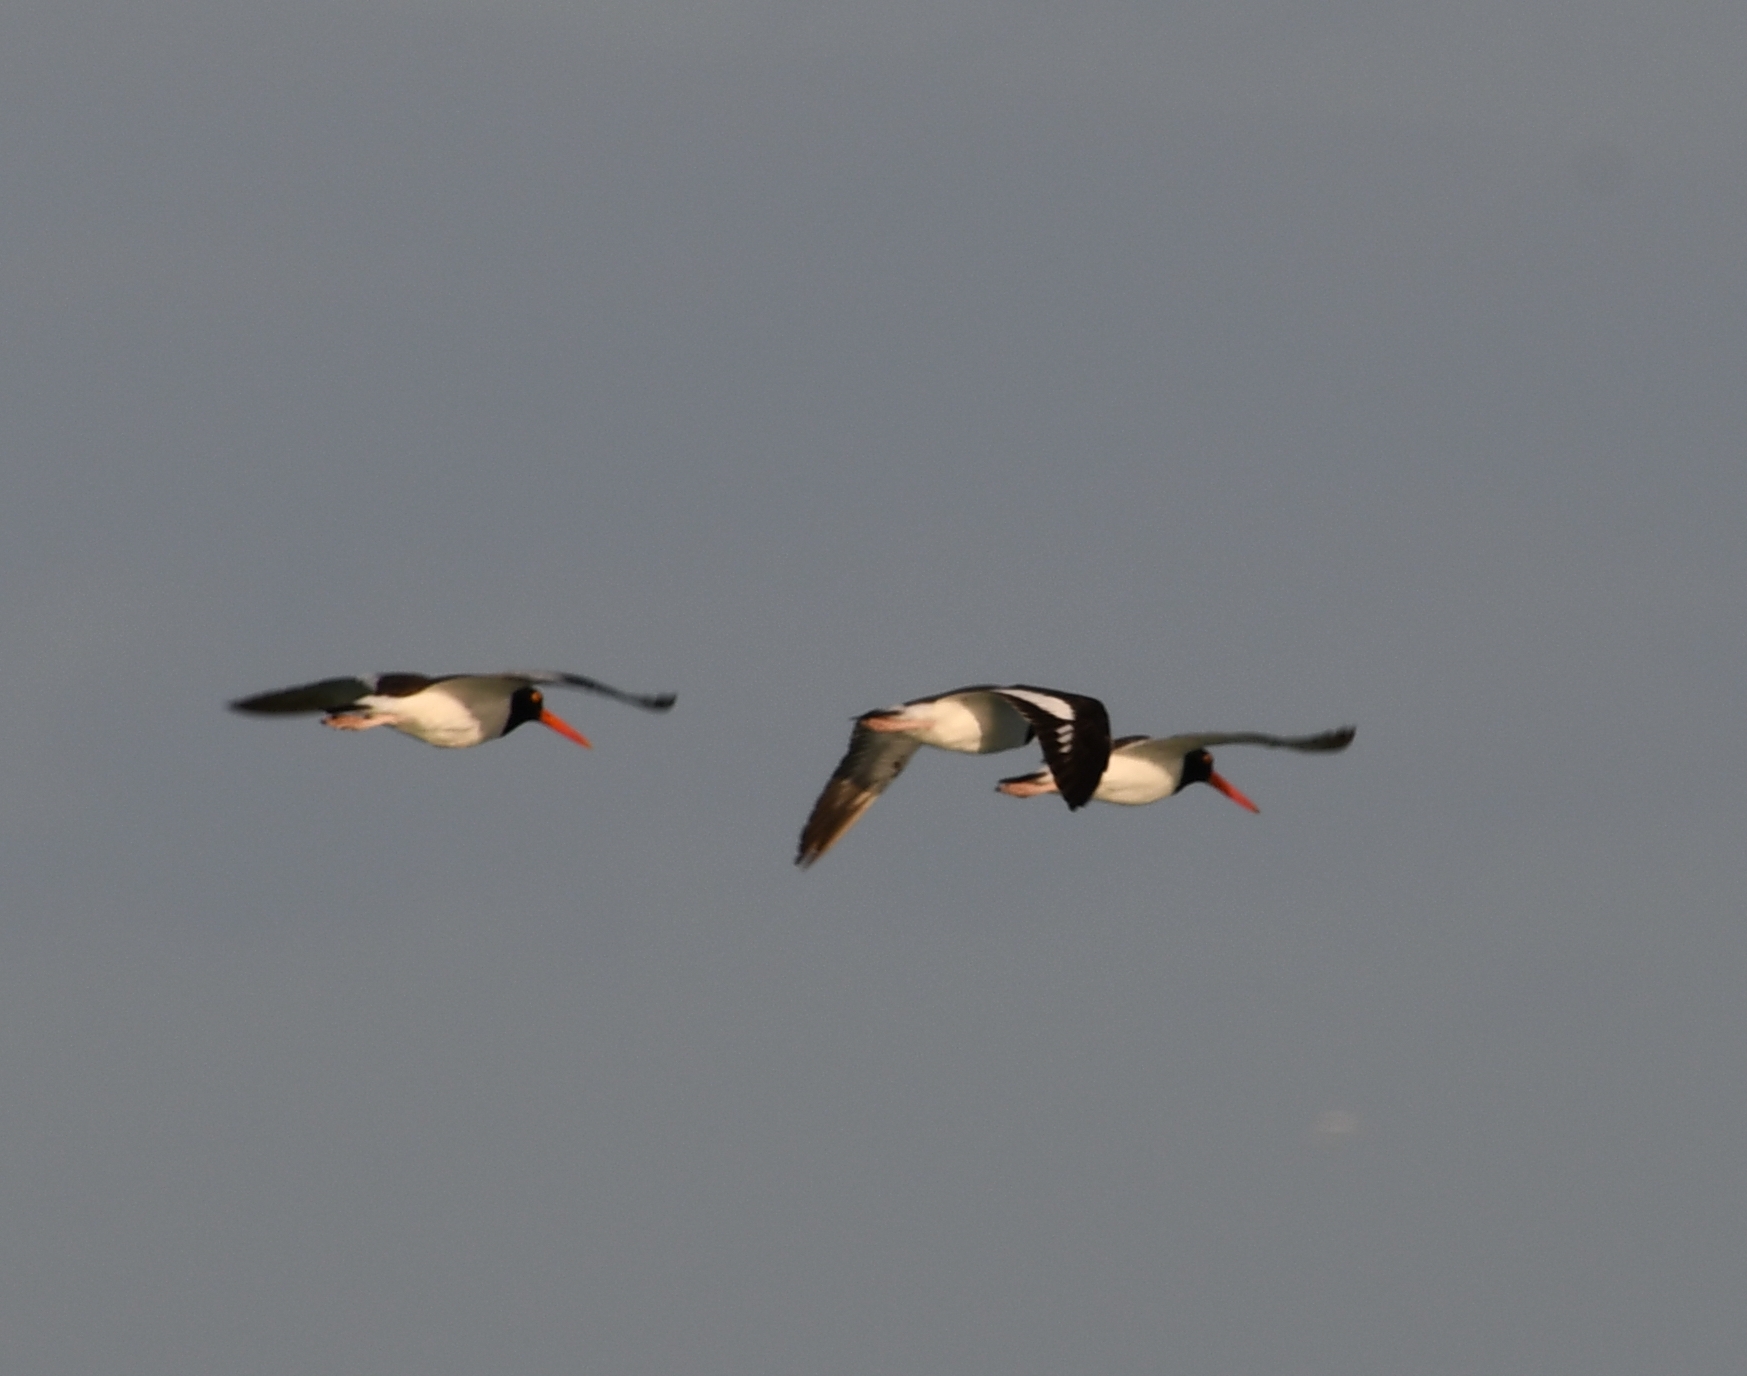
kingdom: Animalia
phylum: Chordata
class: Aves
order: Charadriiformes
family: Haematopodidae
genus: Haematopus
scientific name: Haematopus palliatus
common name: American oystercatcher
